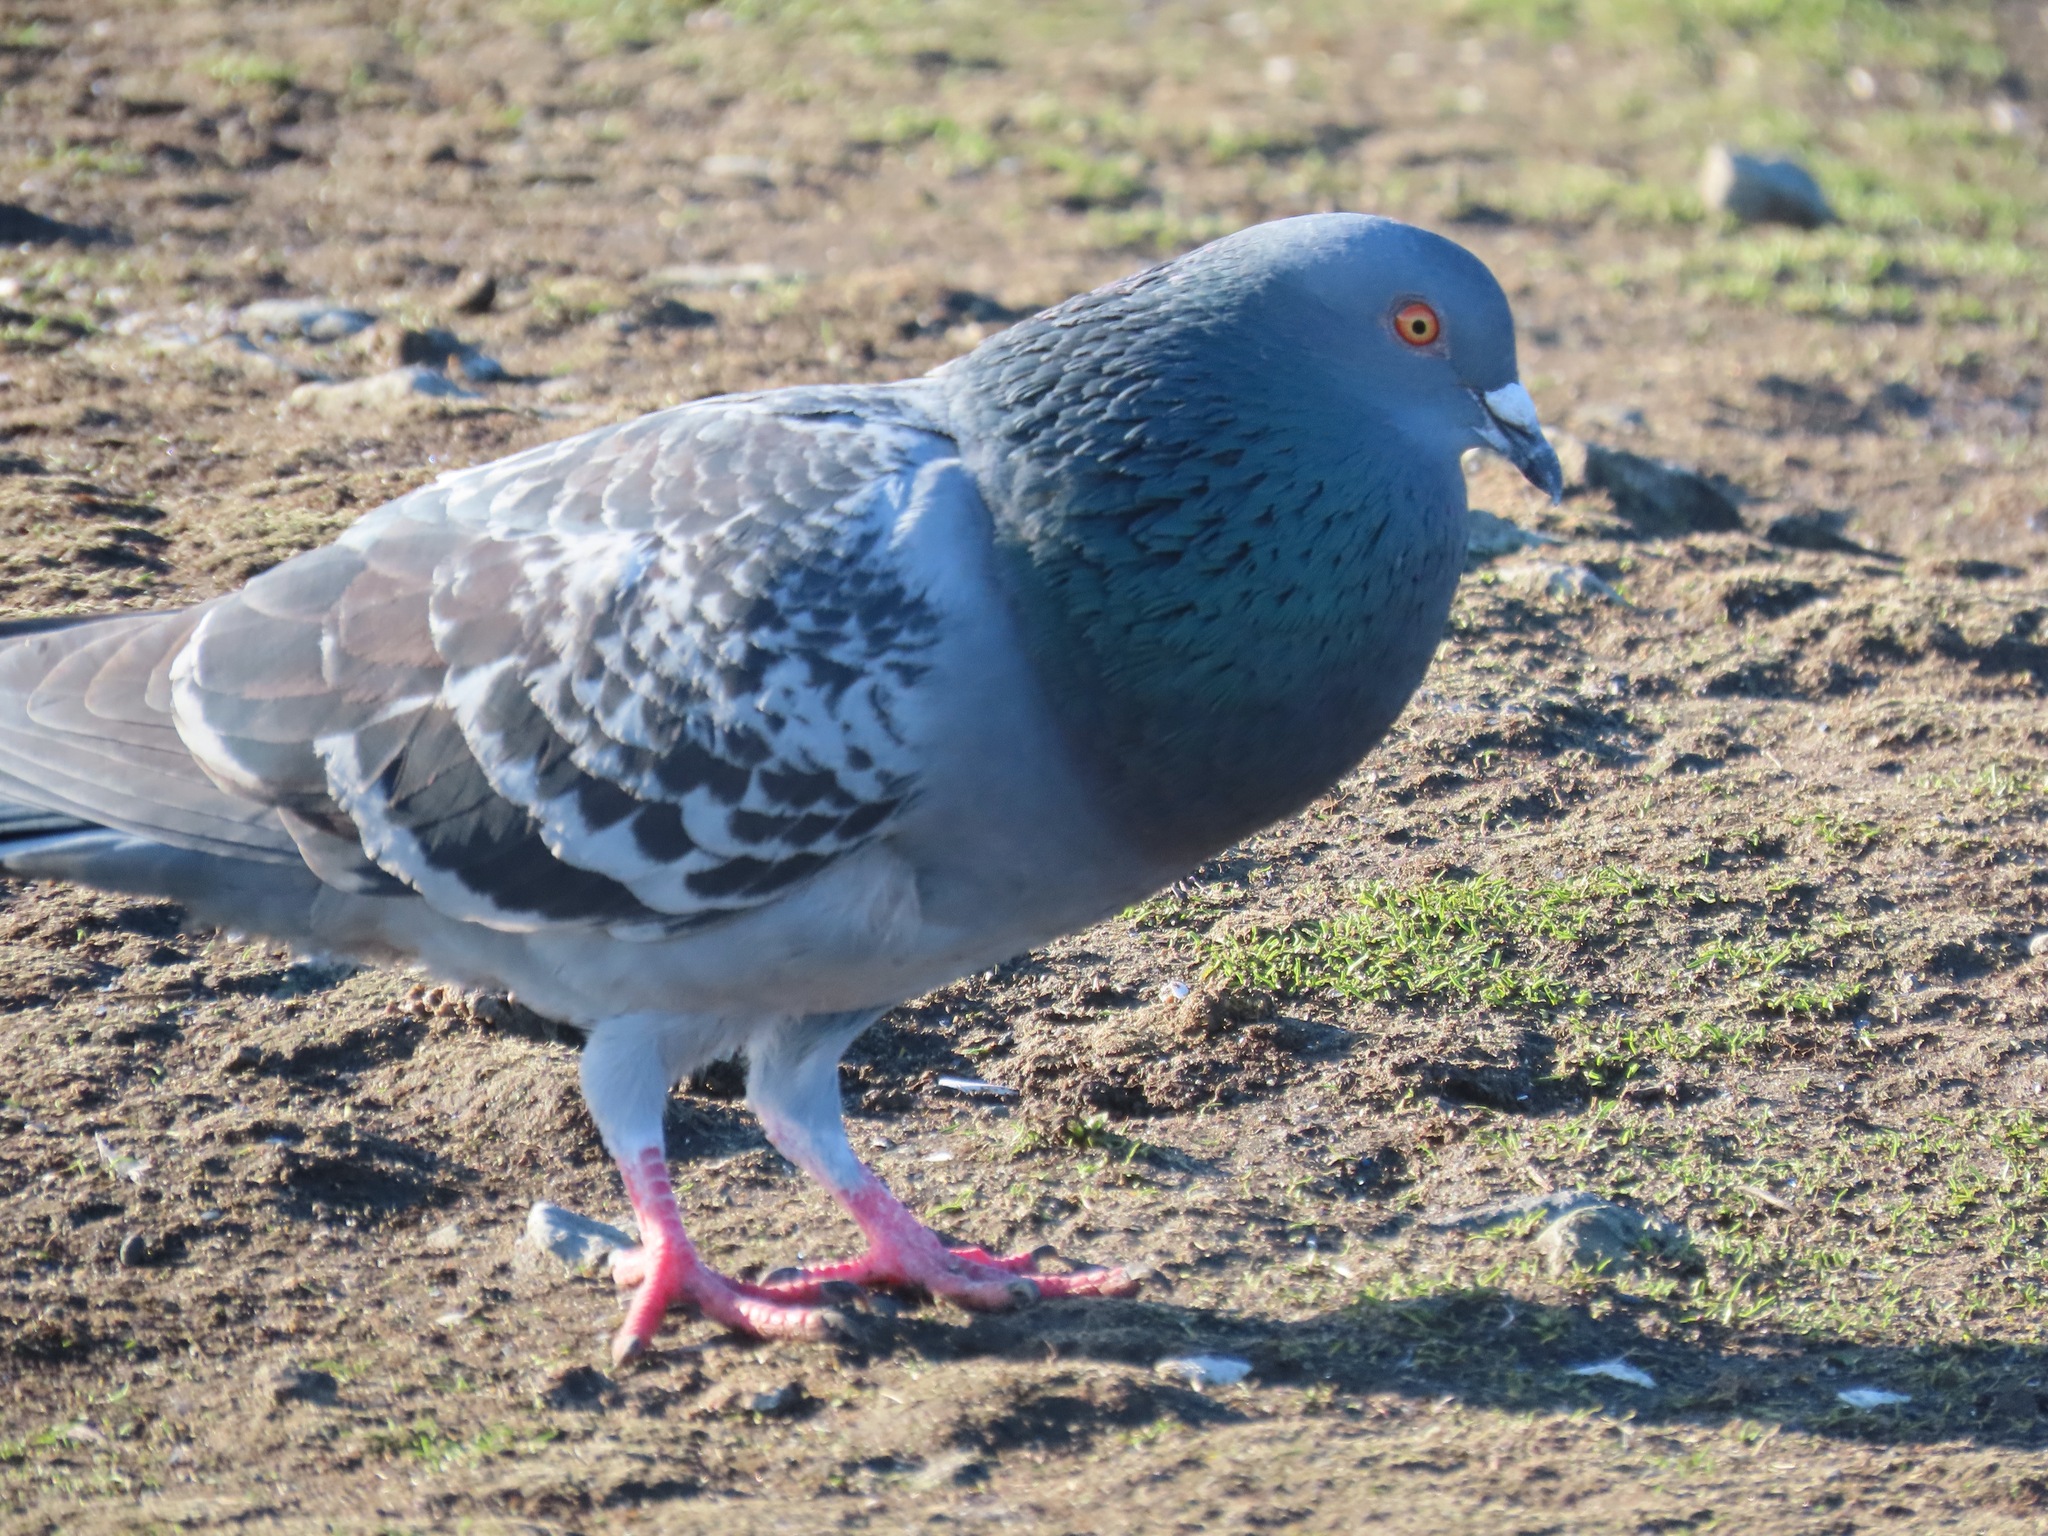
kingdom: Animalia
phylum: Chordata
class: Aves
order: Columbiformes
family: Columbidae
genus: Columba
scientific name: Columba livia
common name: Rock pigeon
